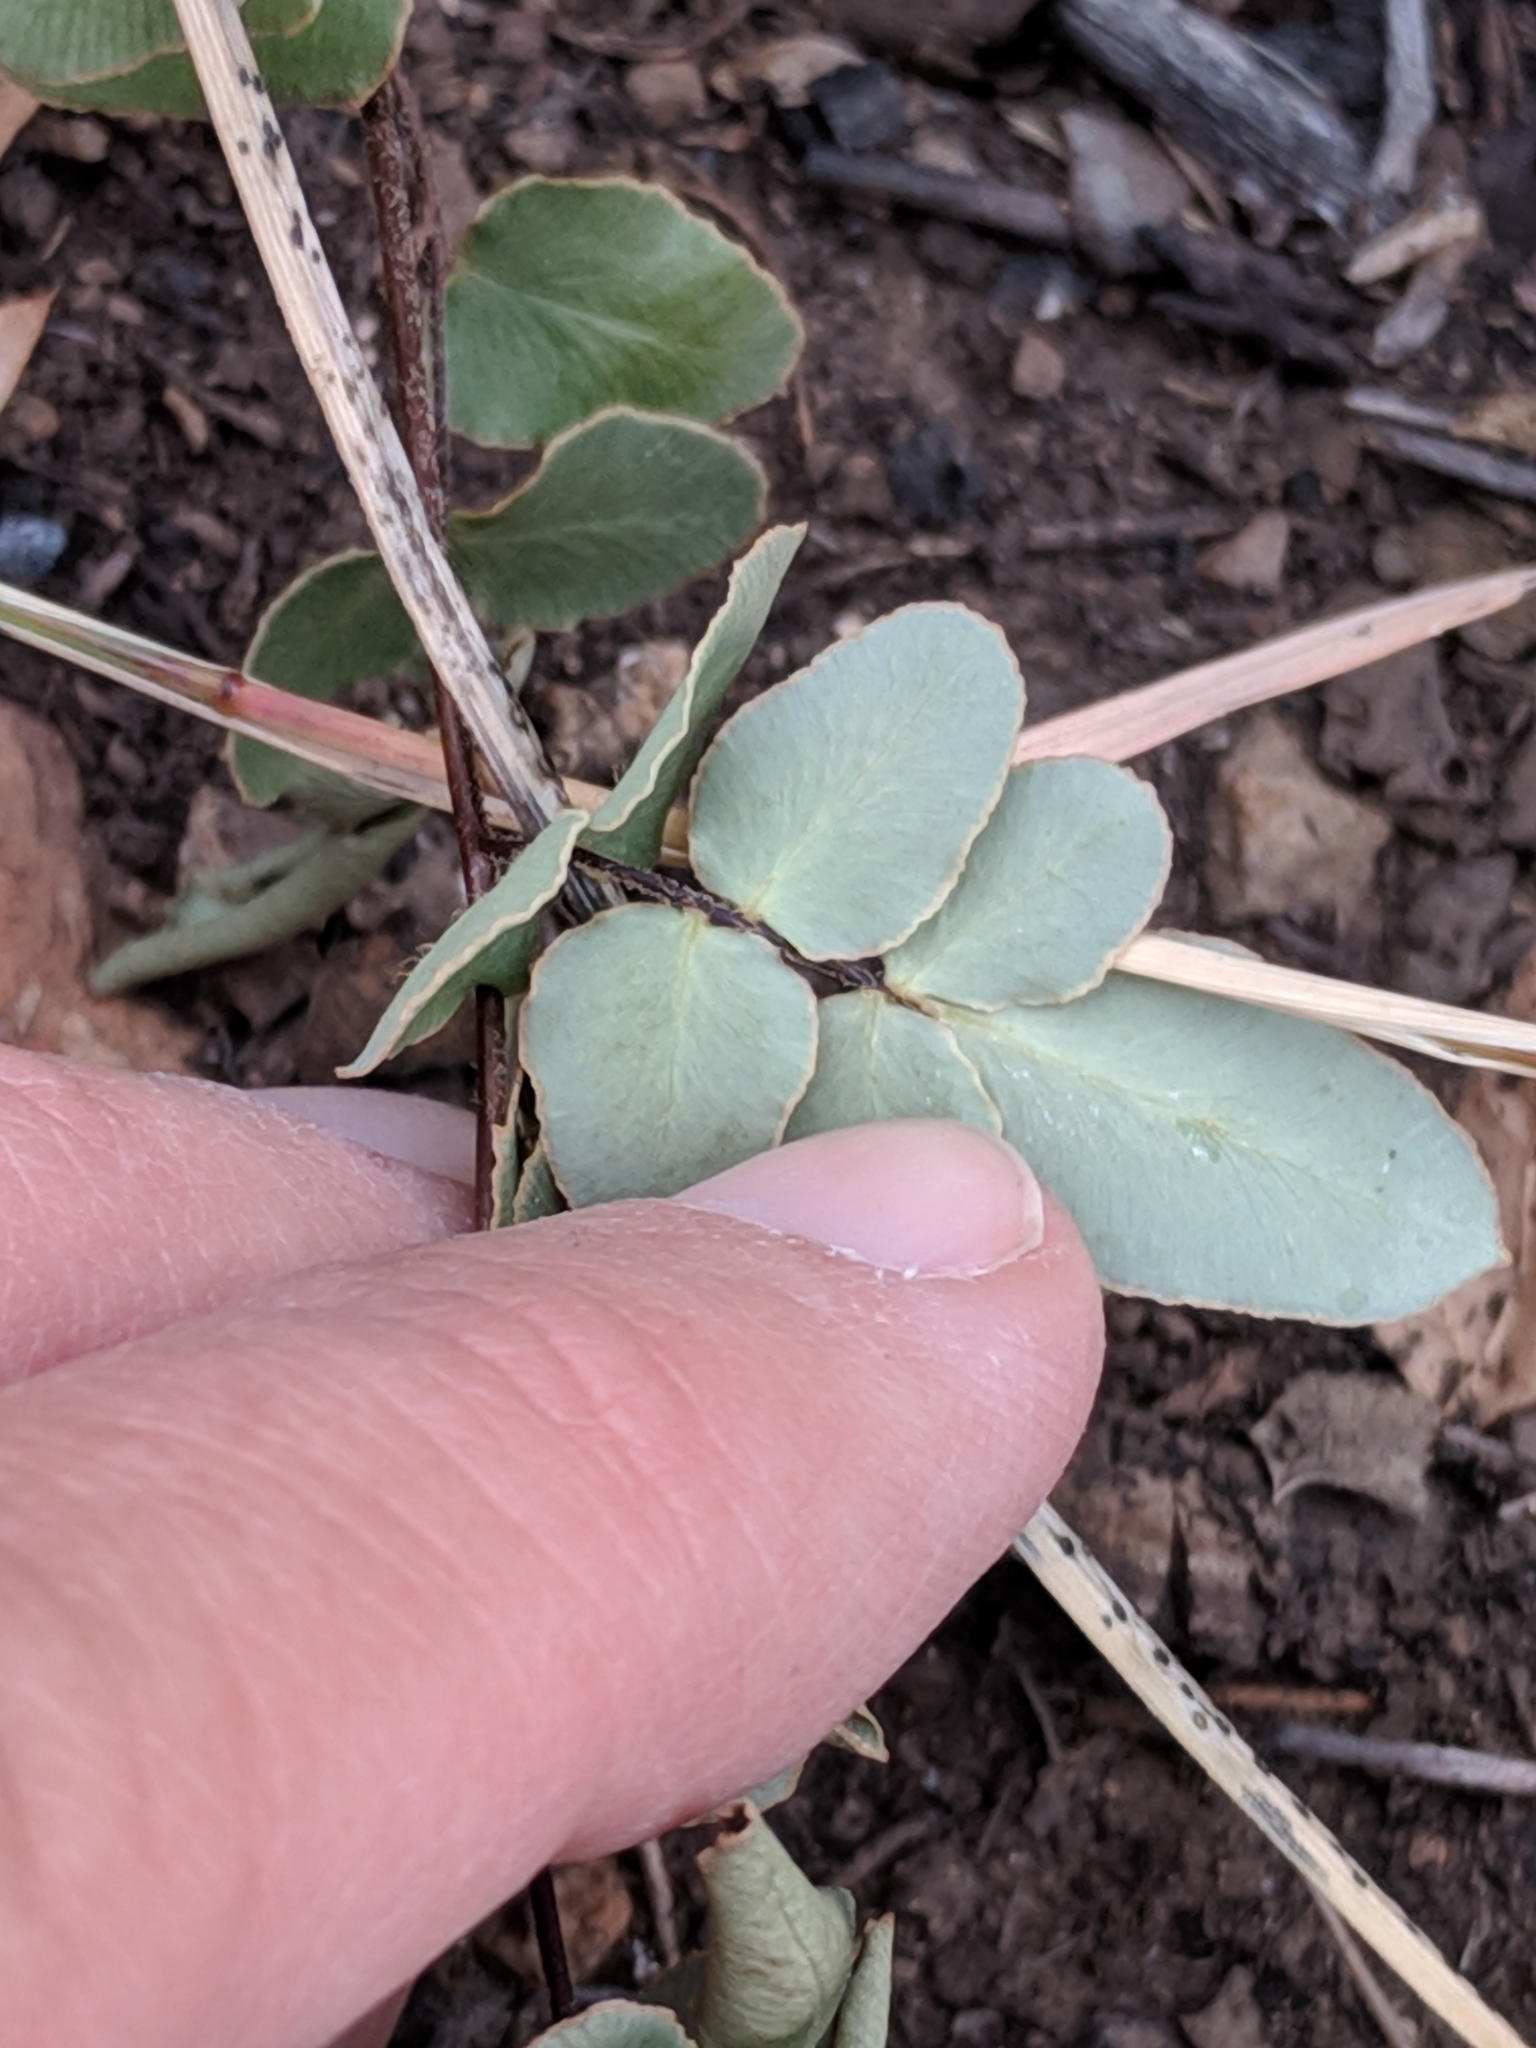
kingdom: Plantae
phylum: Tracheophyta
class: Polypodiopsida
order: Polypodiales
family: Pteridaceae
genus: Pellaea
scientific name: Pellaea atropurpurea
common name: Hairy cliffbrake
